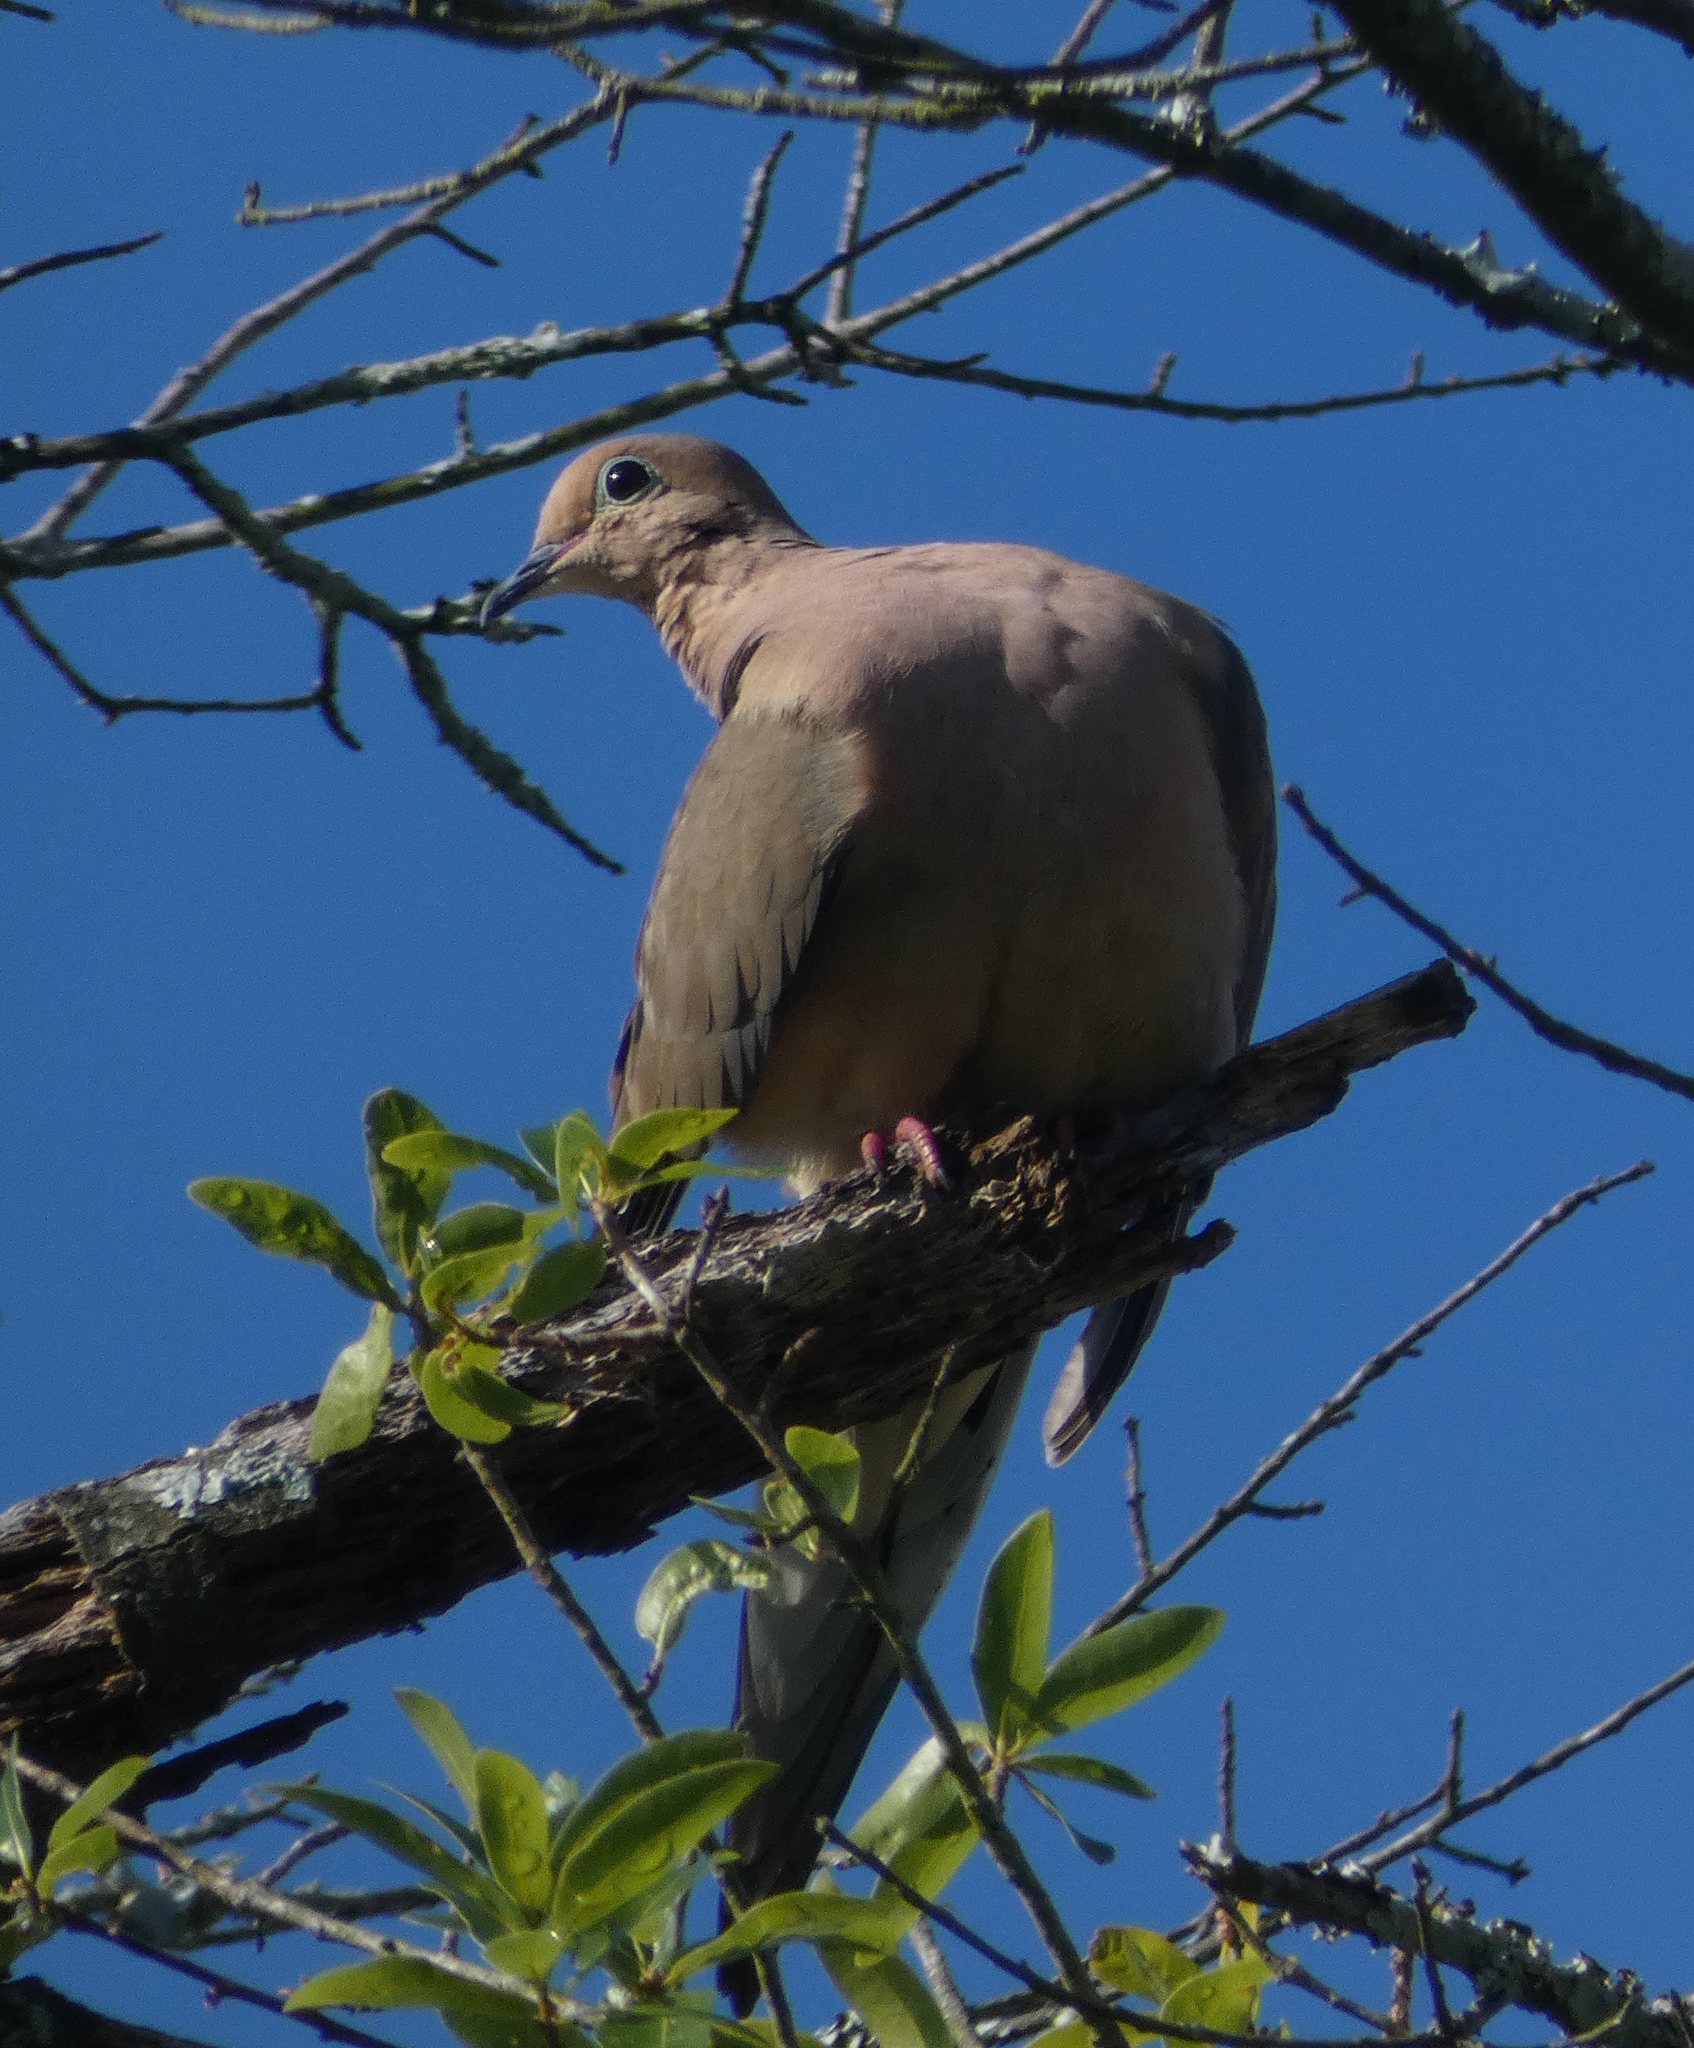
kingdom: Animalia
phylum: Chordata
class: Aves
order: Columbiformes
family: Columbidae
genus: Zenaida
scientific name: Zenaida macroura
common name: Mourning dove
